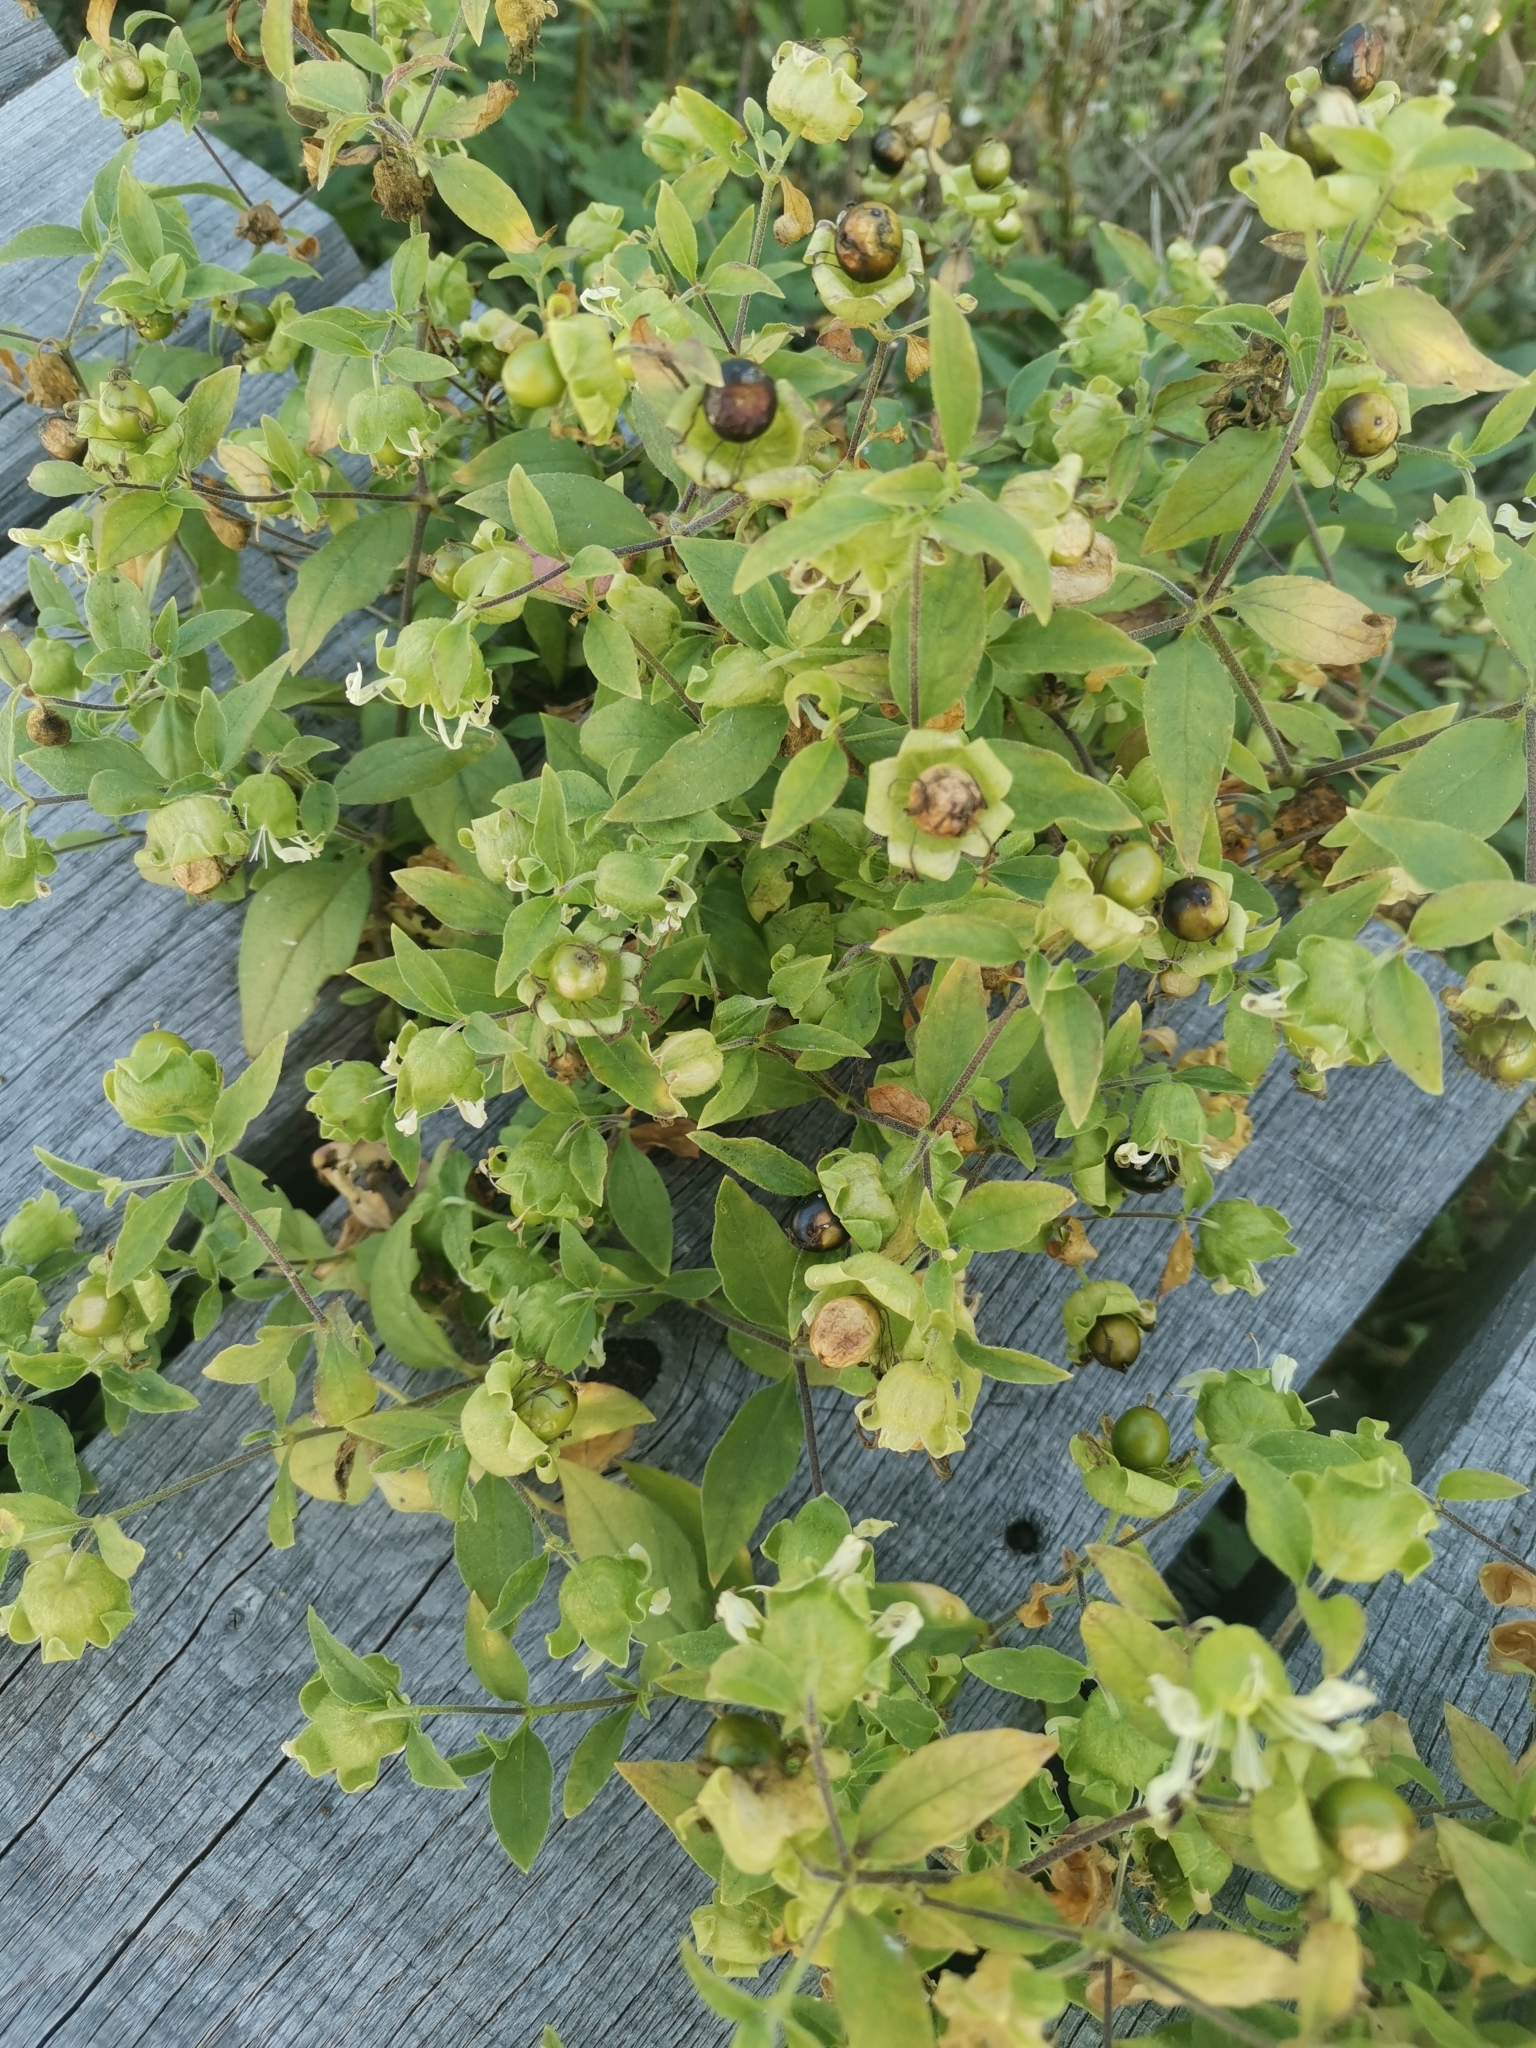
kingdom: Plantae
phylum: Tracheophyta
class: Magnoliopsida
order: Caryophyllales
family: Caryophyllaceae
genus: Silene
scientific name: Silene baccifera
